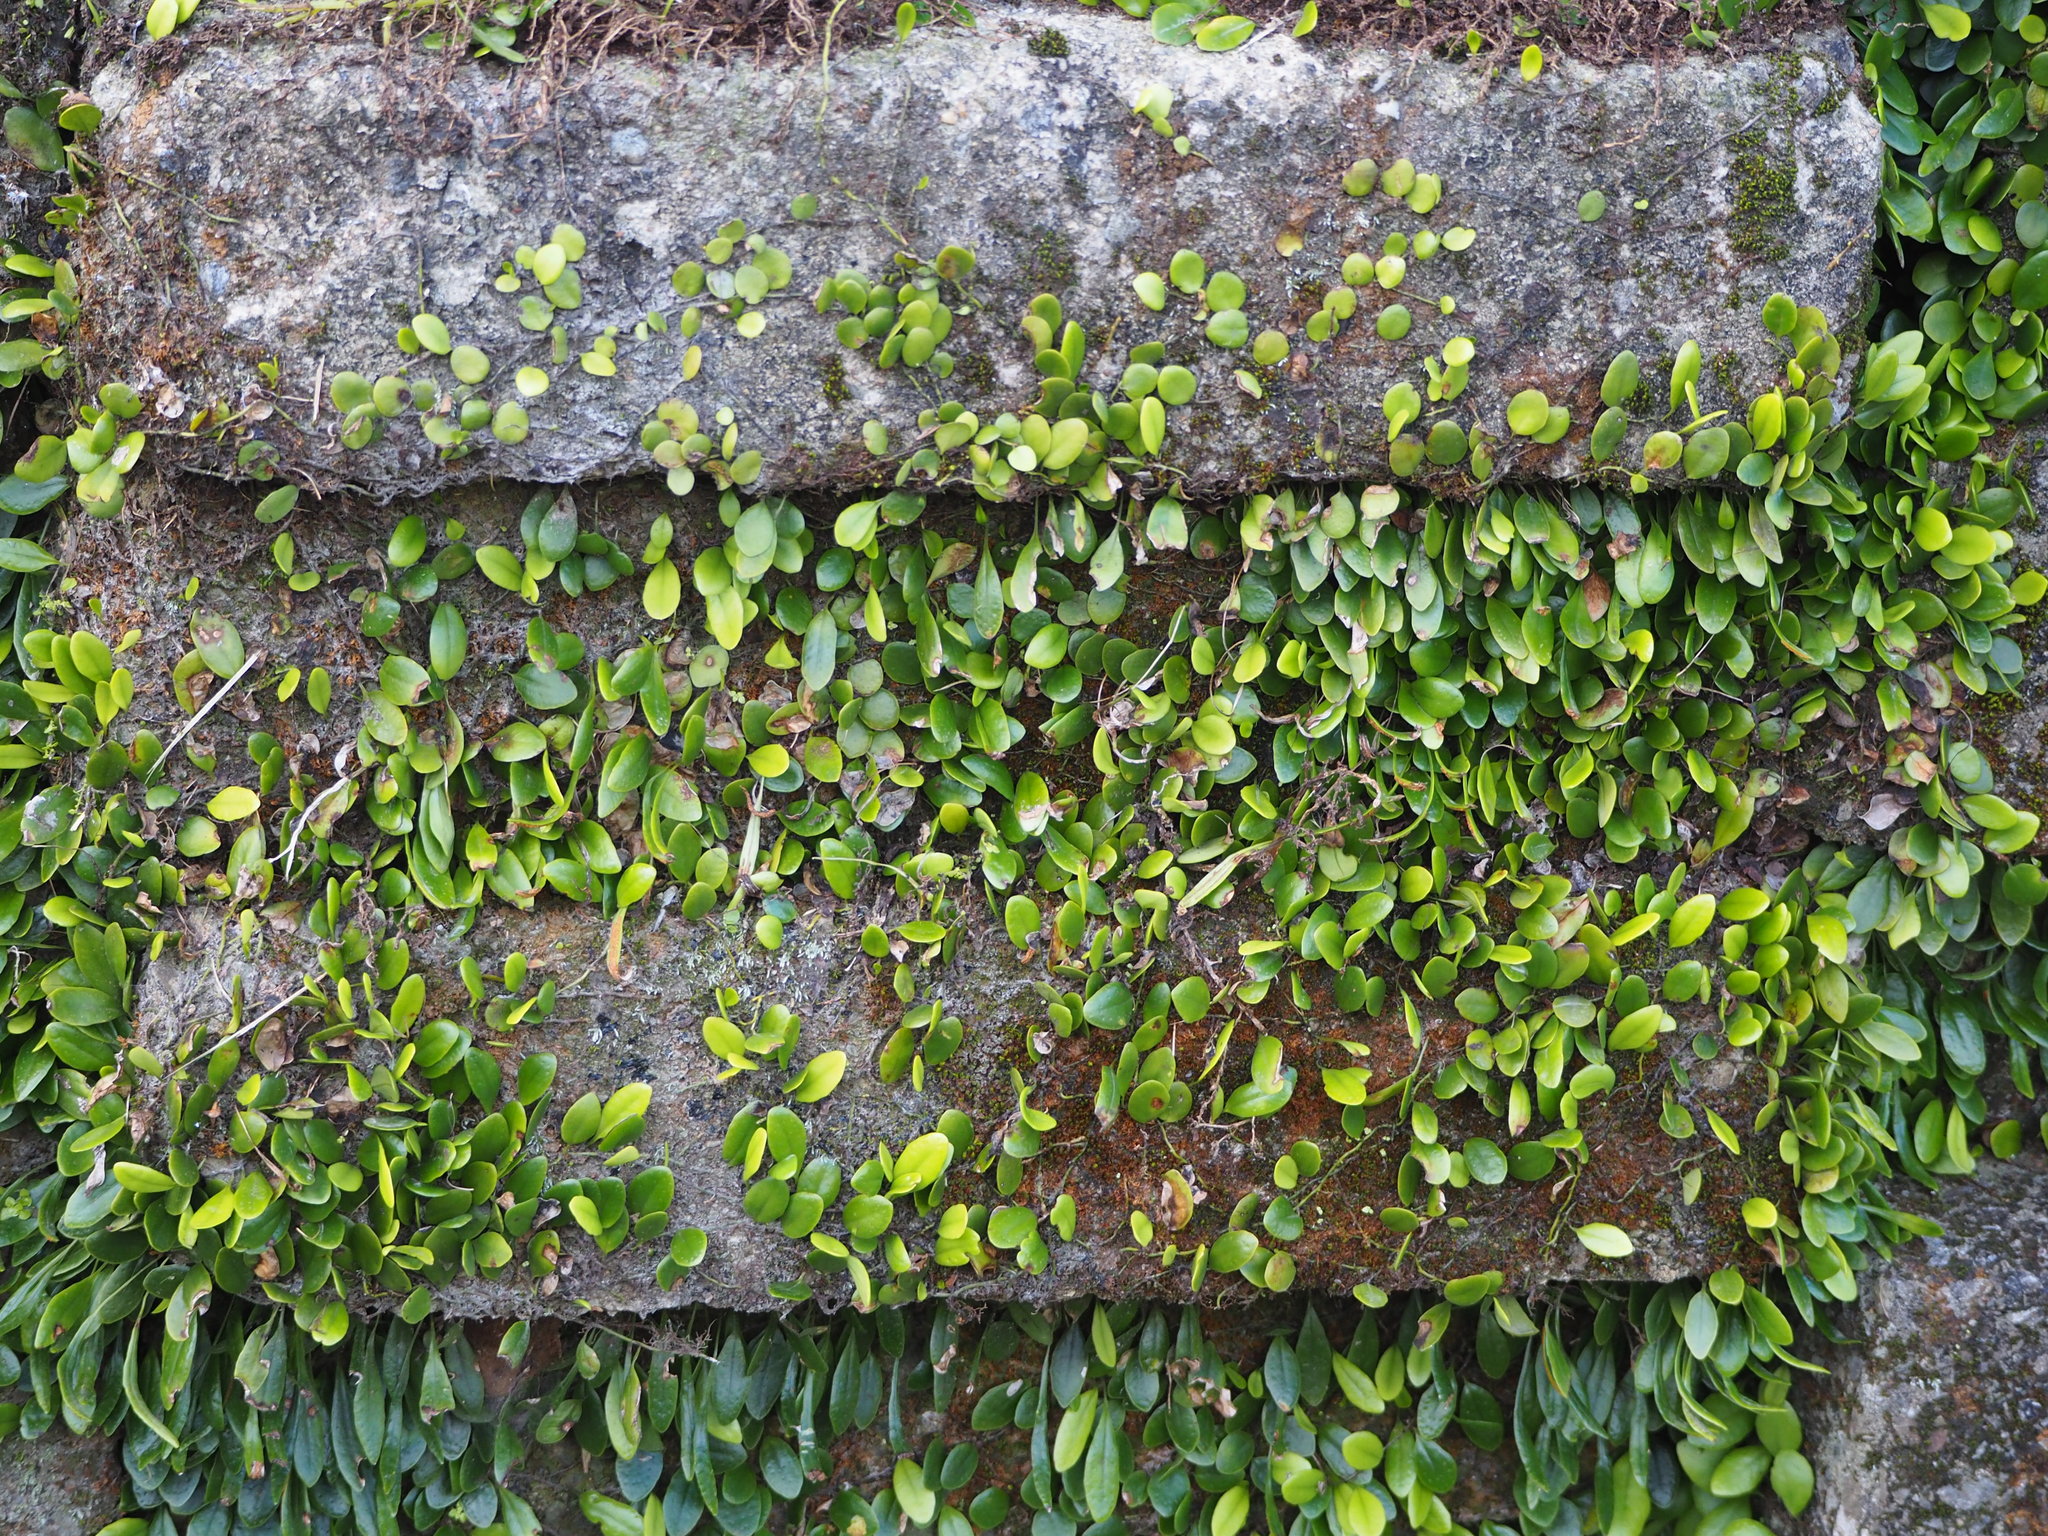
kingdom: Plantae
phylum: Tracheophyta
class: Polypodiopsida
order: Polypodiales
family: Polypodiaceae
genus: Lepisorus
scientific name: Lepisorus microphyllus
